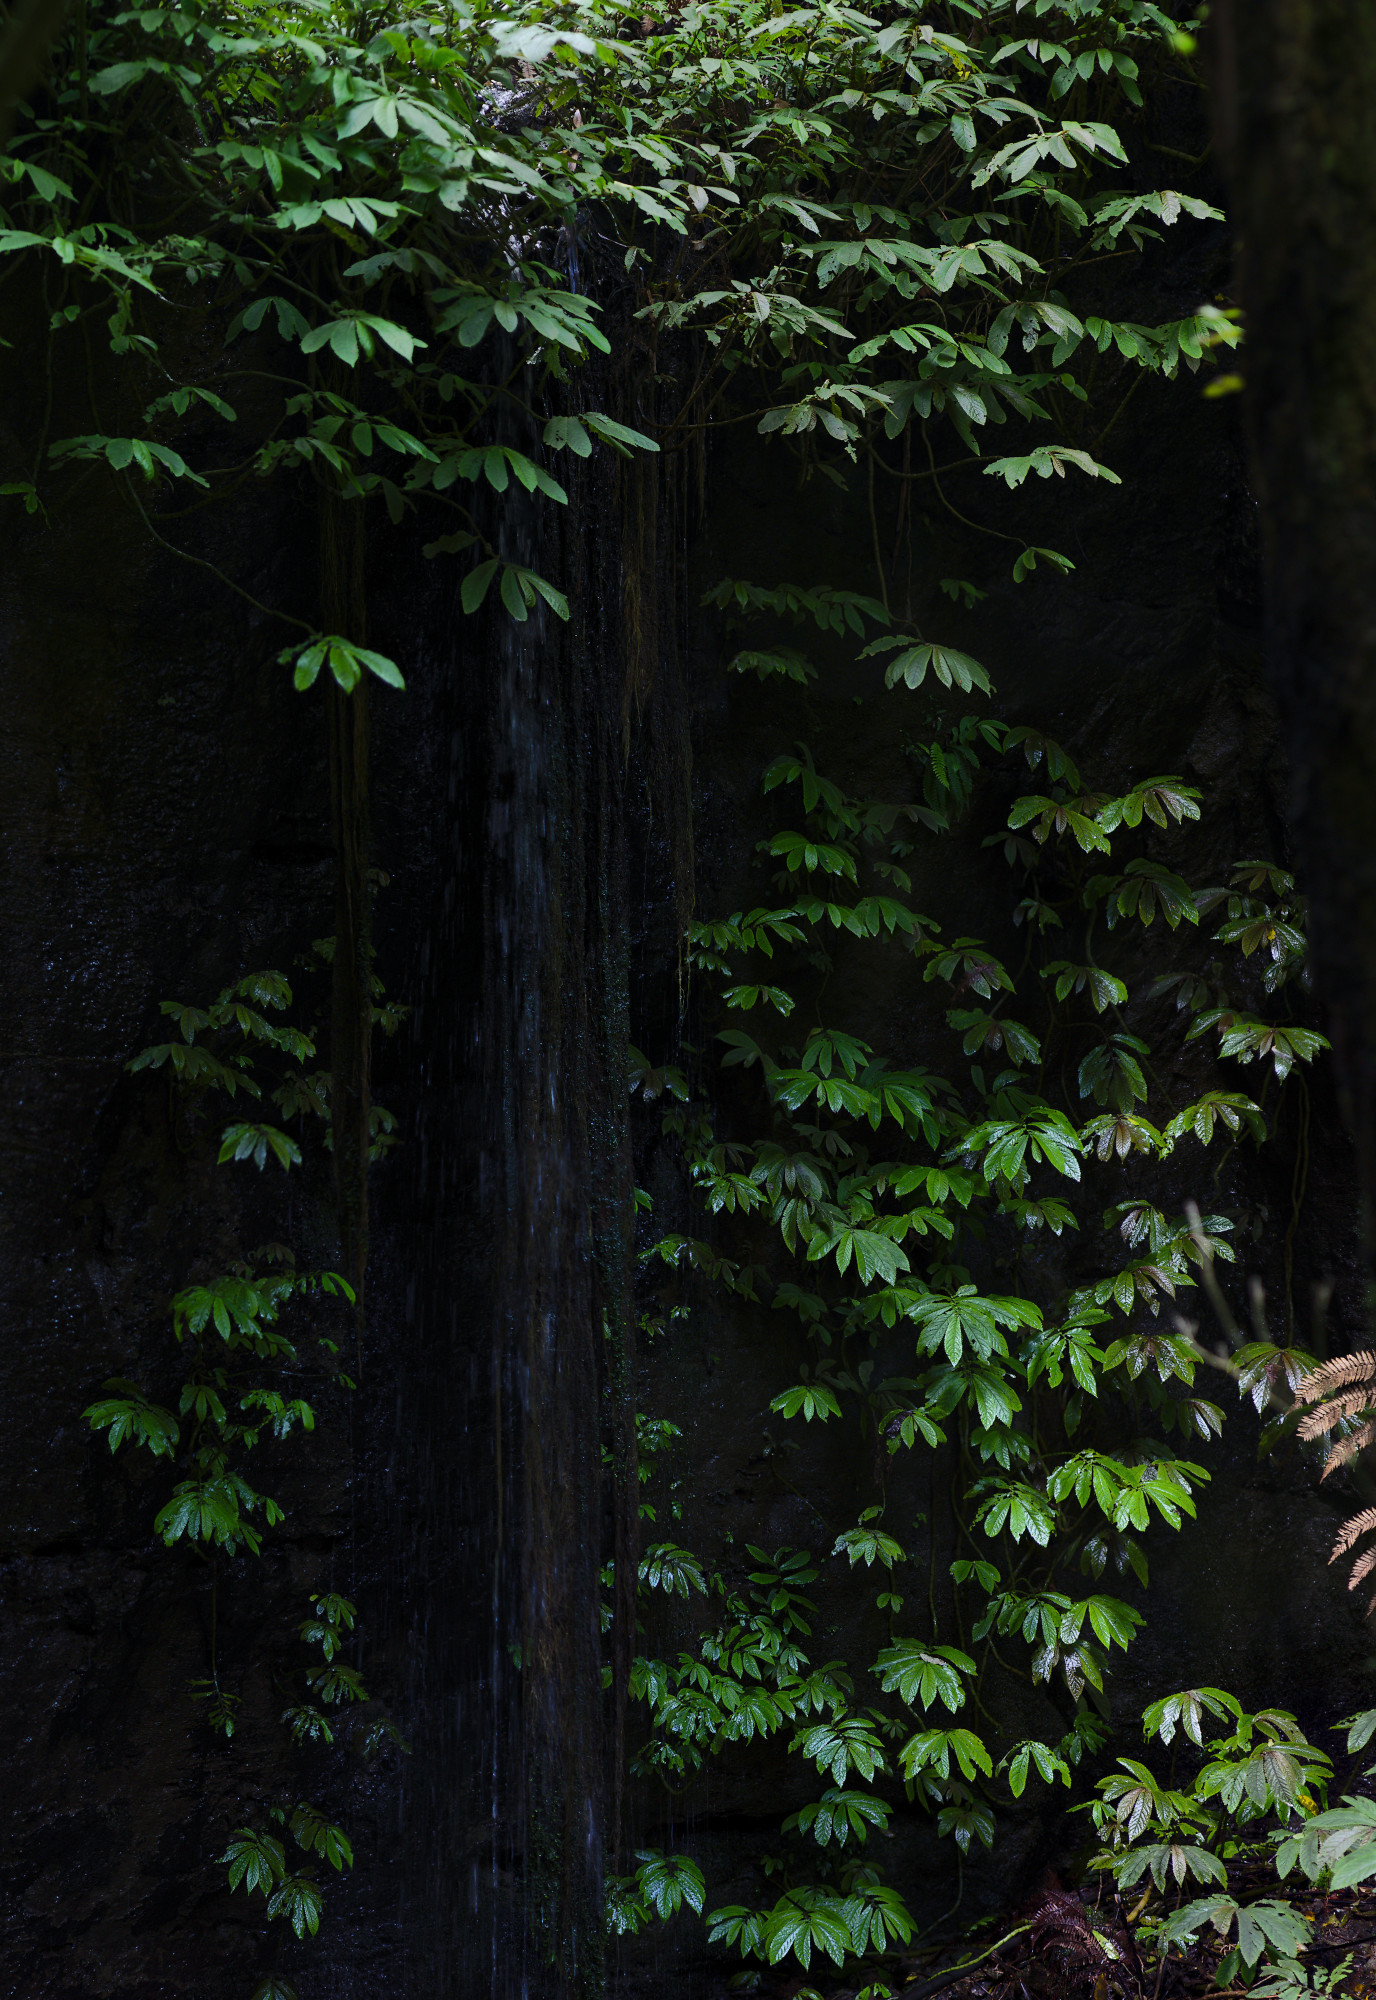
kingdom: Plantae
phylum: Tracheophyta
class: Magnoliopsida
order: Rosales
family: Urticaceae
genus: Elatostema
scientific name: Elatostema rugosum
